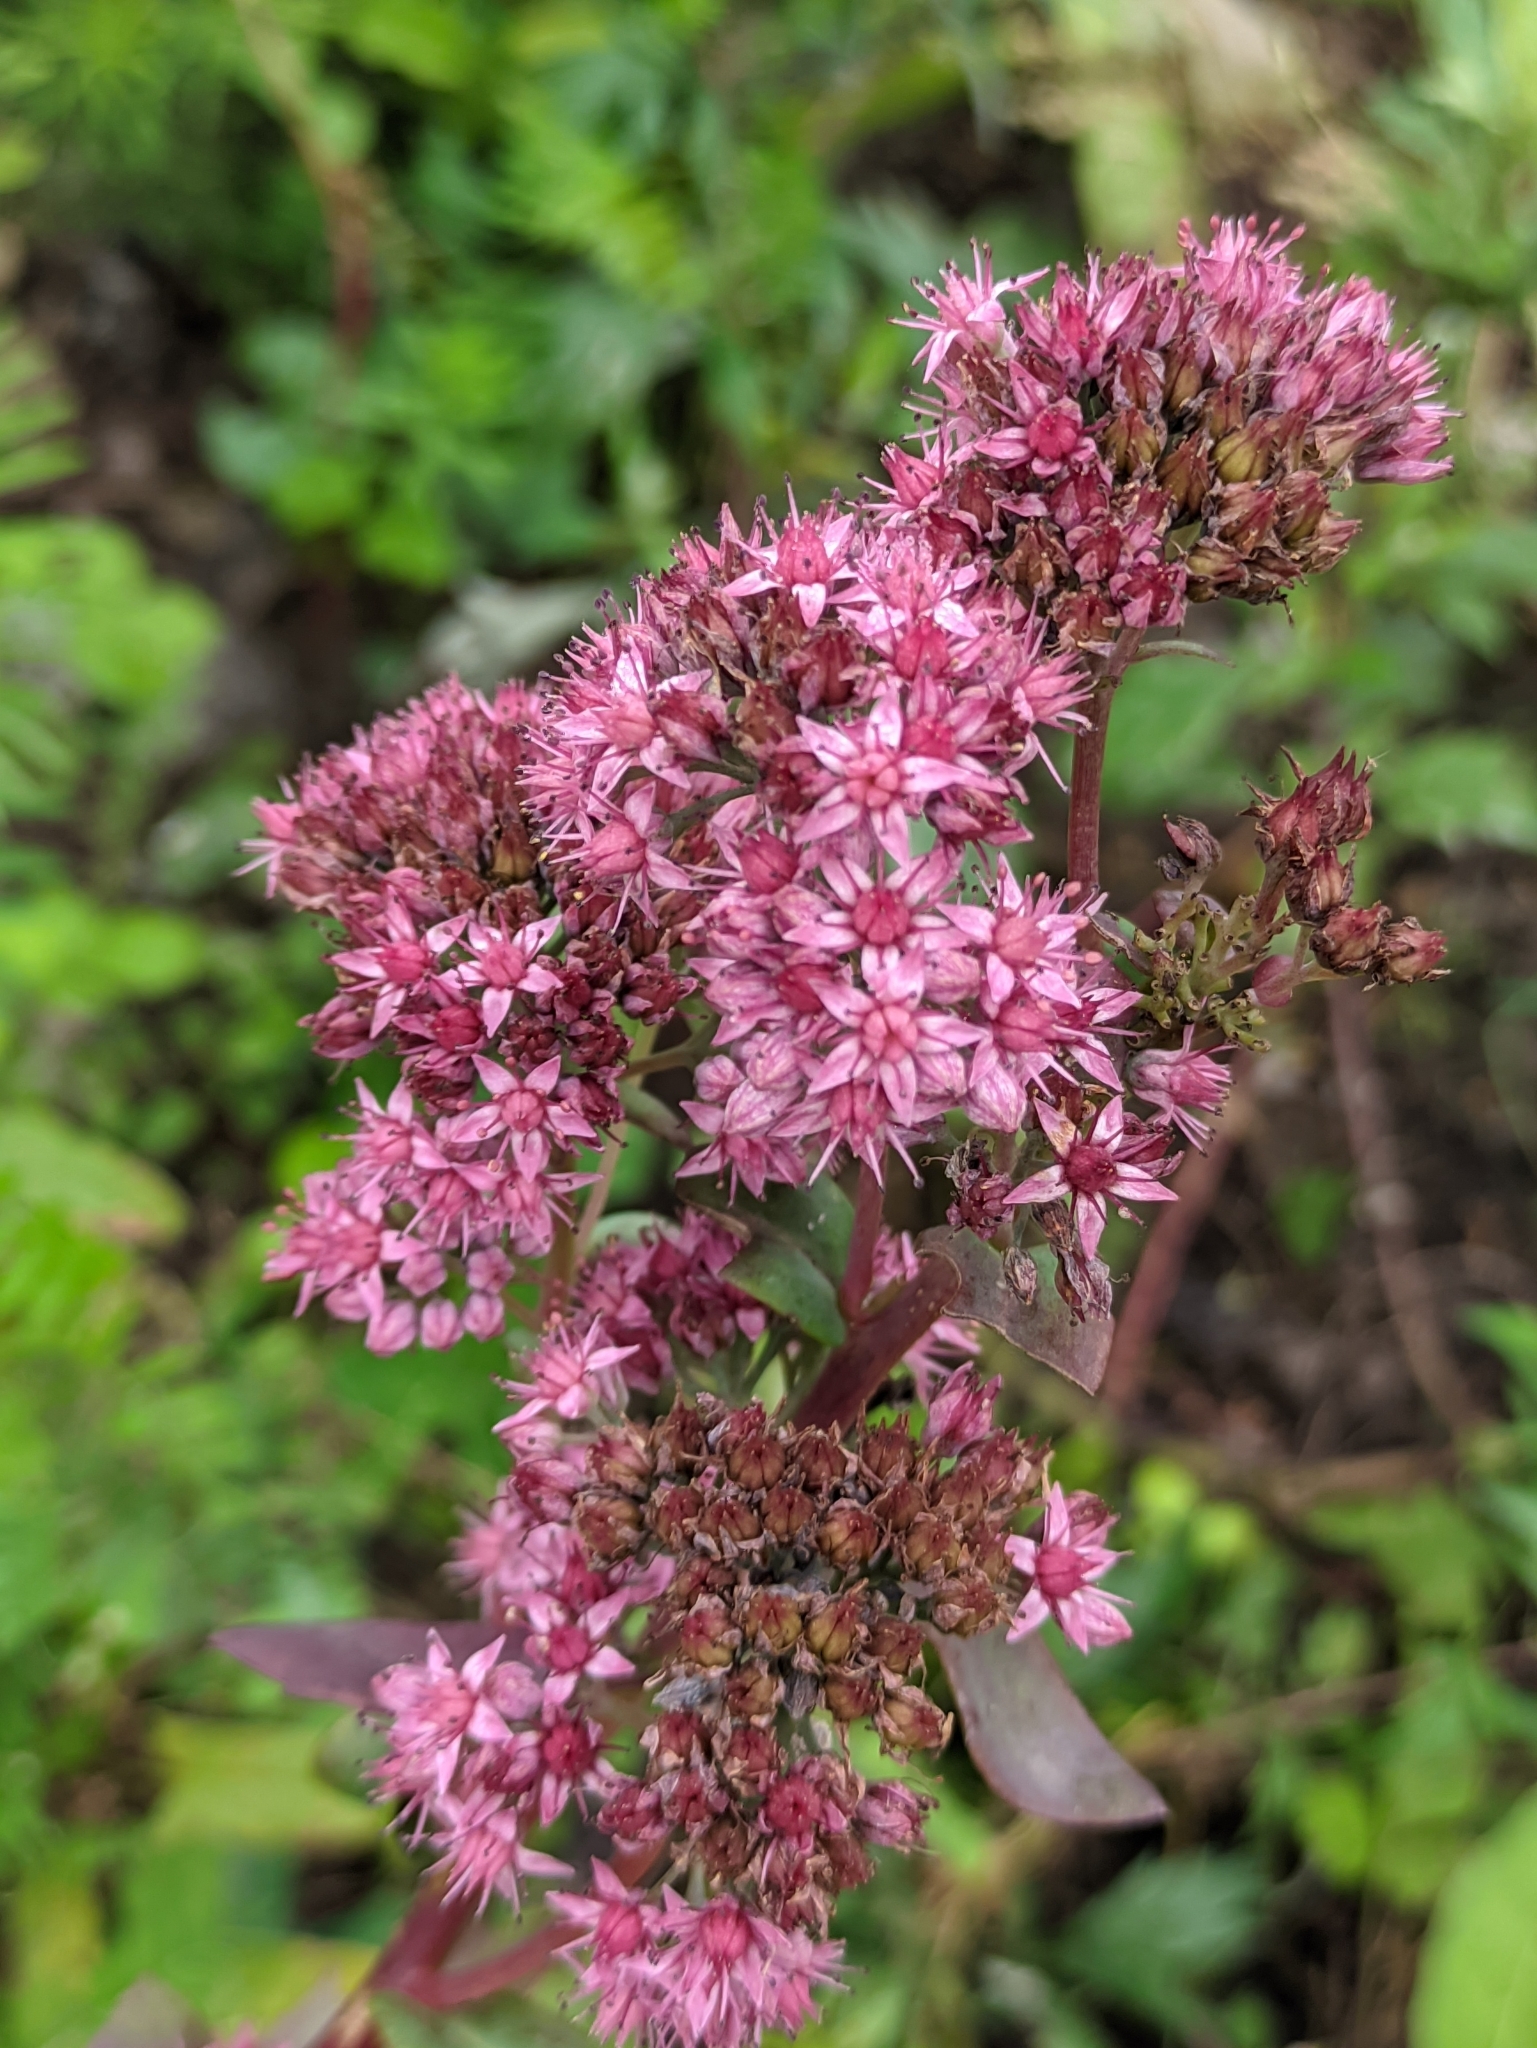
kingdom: Plantae
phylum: Tracheophyta
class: Magnoliopsida
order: Saxifragales
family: Crassulaceae
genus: Hylotelephium
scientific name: Hylotelephium telephium
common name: Live-forever
